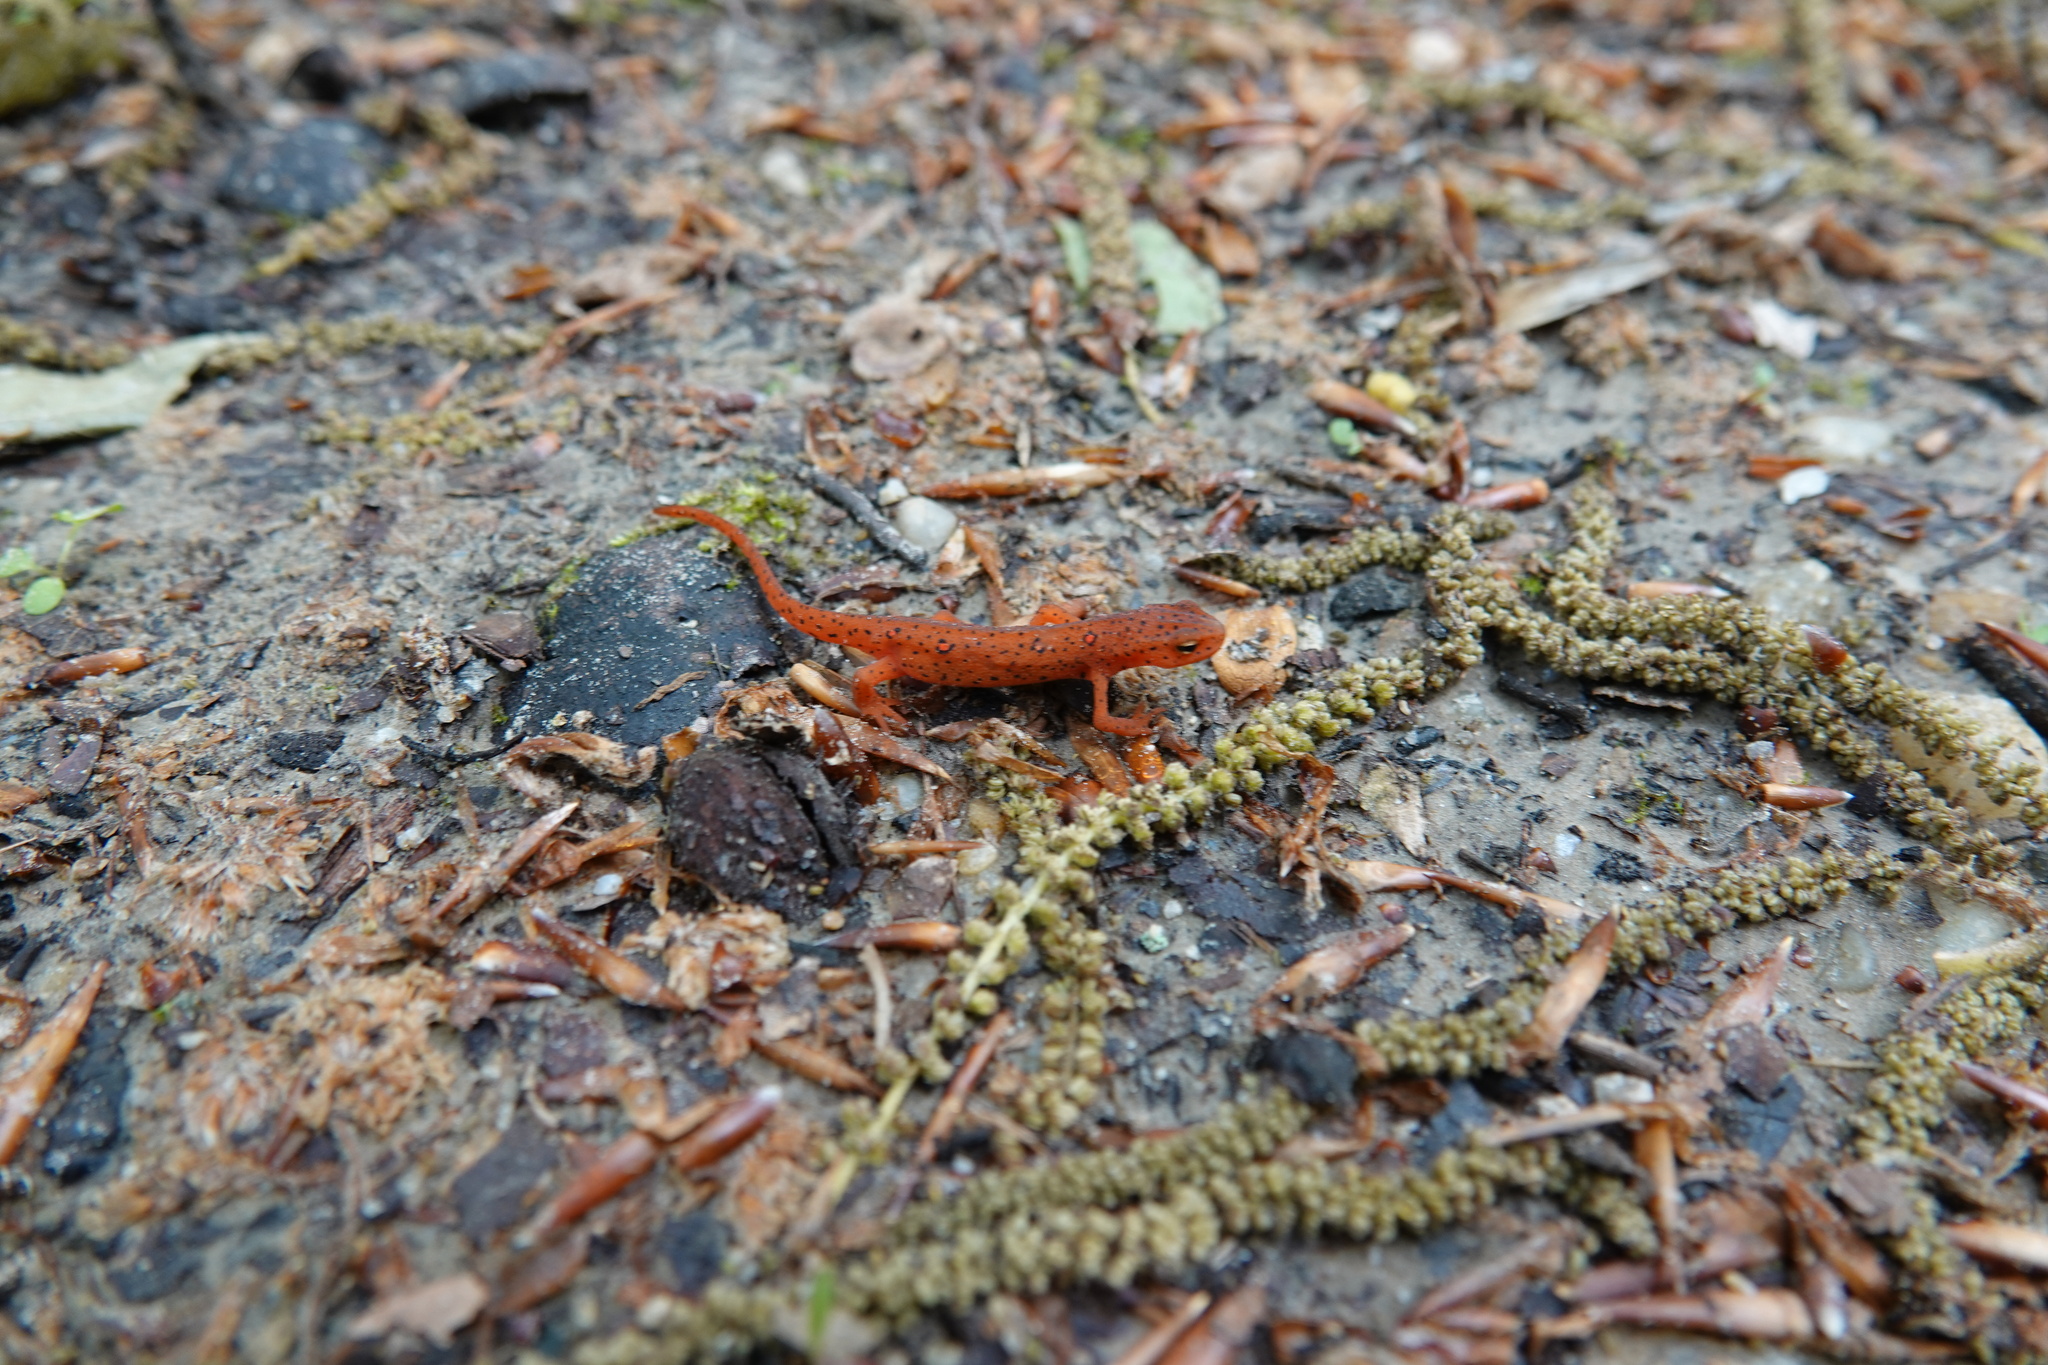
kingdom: Animalia
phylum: Chordata
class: Amphibia
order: Caudata
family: Salamandridae
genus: Notophthalmus
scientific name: Notophthalmus viridescens
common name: Eastern newt
